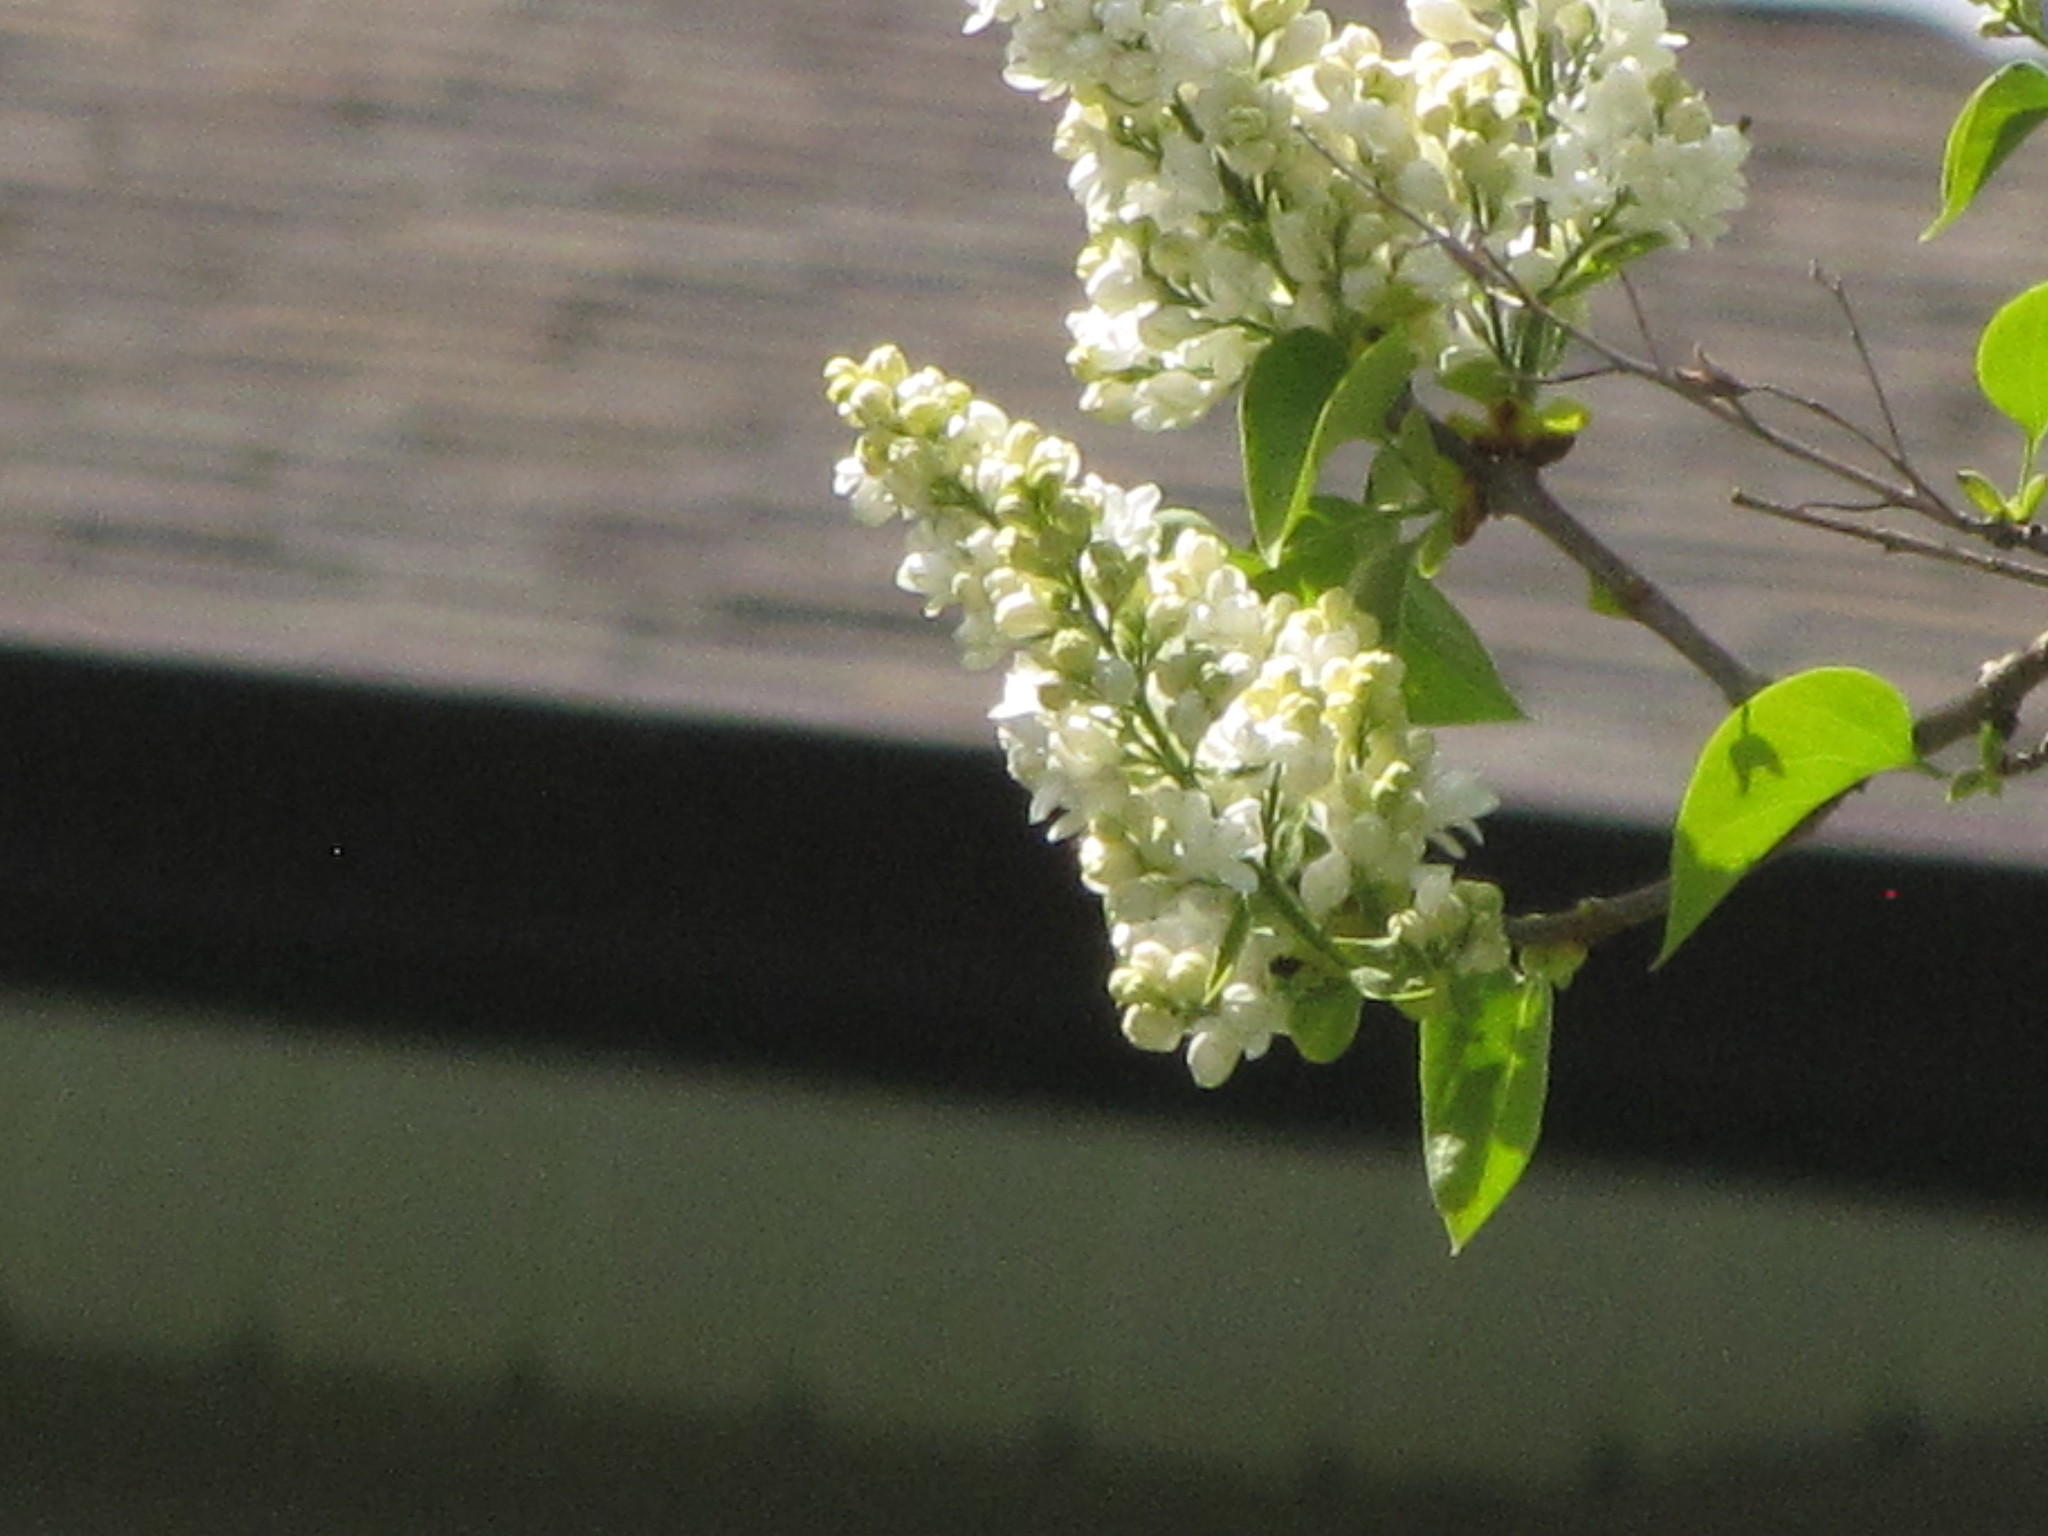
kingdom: Plantae
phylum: Tracheophyta
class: Magnoliopsida
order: Lamiales
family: Oleaceae
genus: Syringa
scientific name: Syringa vulgaris
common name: Common lilac
